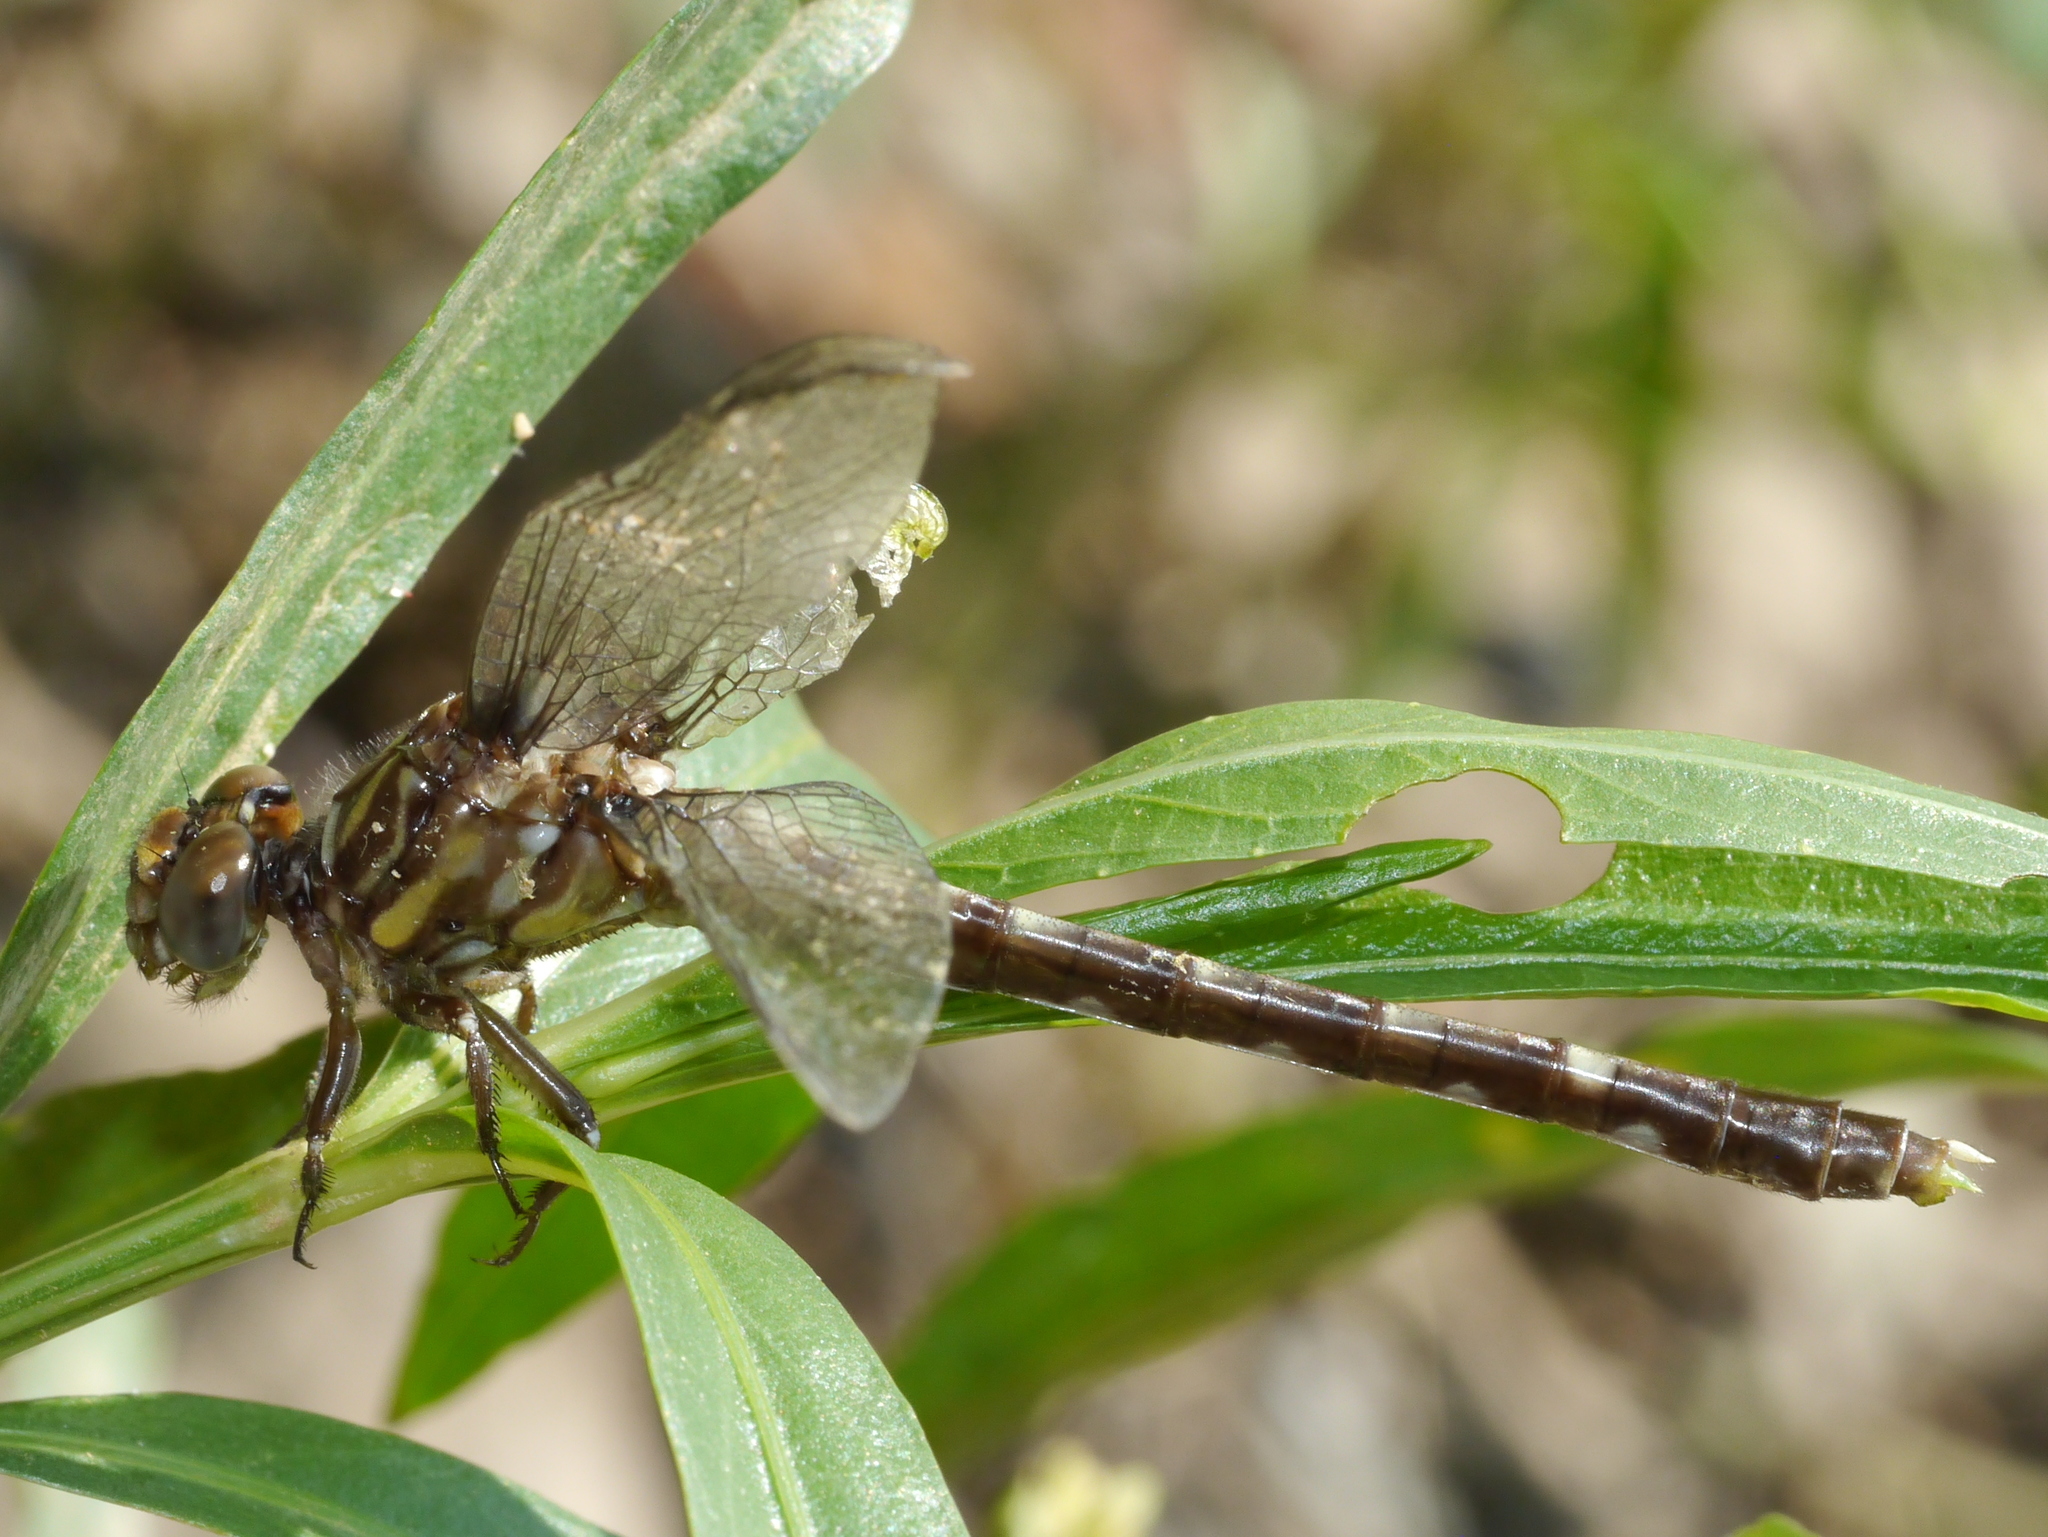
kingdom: Animalia
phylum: Arthropoda
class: Insecta
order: Odonata
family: Gomphidae
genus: Progomphus
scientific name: Progomphus obscurus
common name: Common sanddragon
